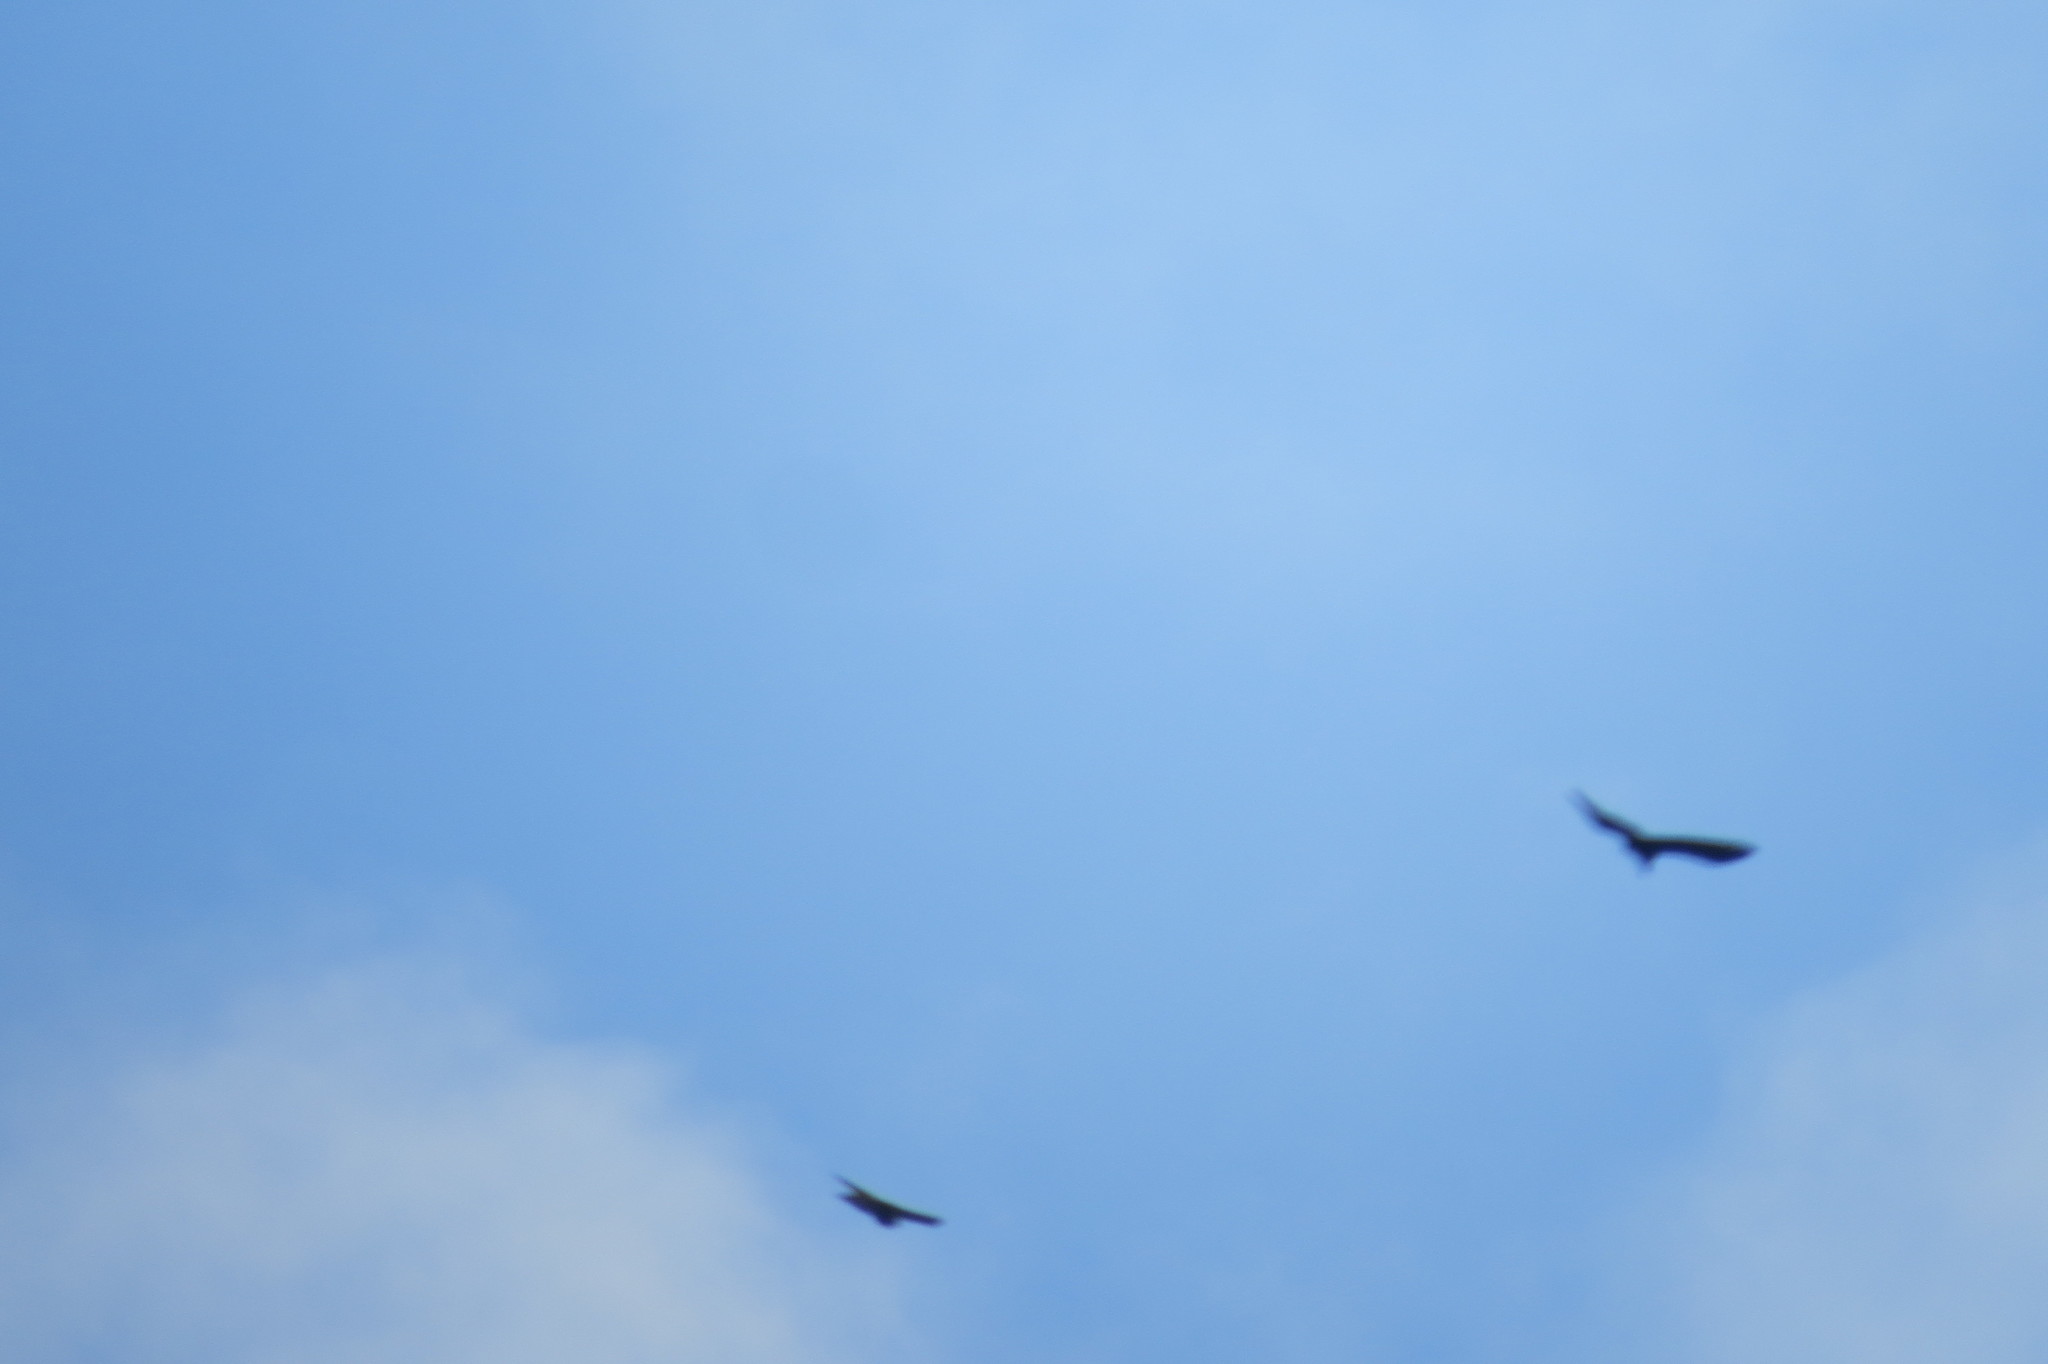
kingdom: Animalia
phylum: Chordata
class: Aves
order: Accipitriformes
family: Accipitridae
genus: Accipiter
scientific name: Accipiter nisus
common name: Eurasian sparrowhawk
